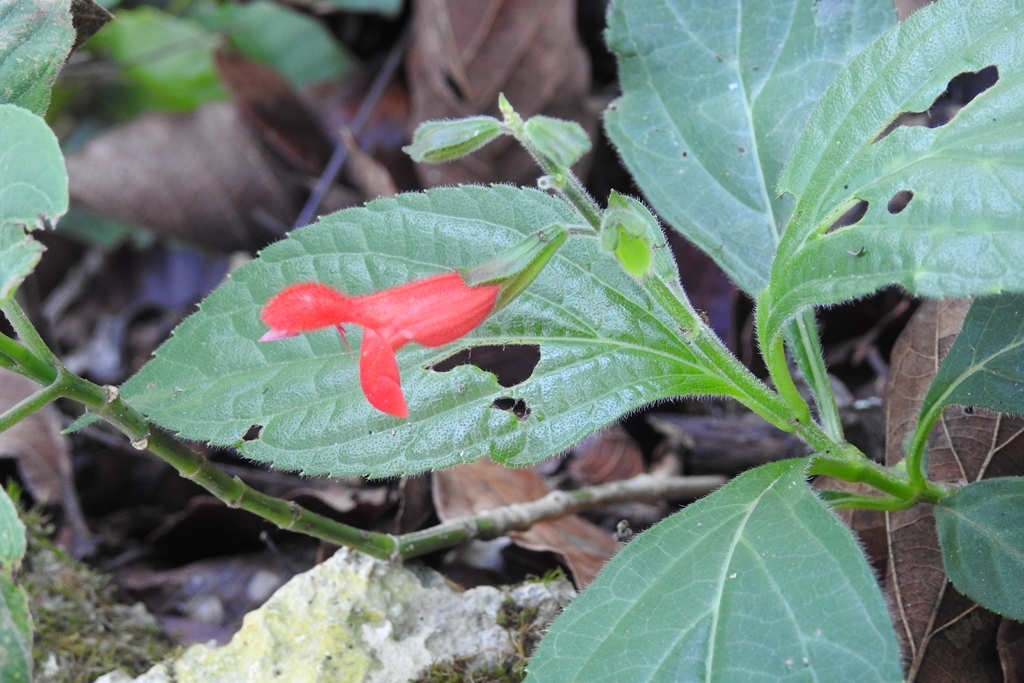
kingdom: Plantae
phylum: Tracheophyta
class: Magnoliopsida
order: Lamiales
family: Lamiaceae
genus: Salvia
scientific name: Salvia miniata
